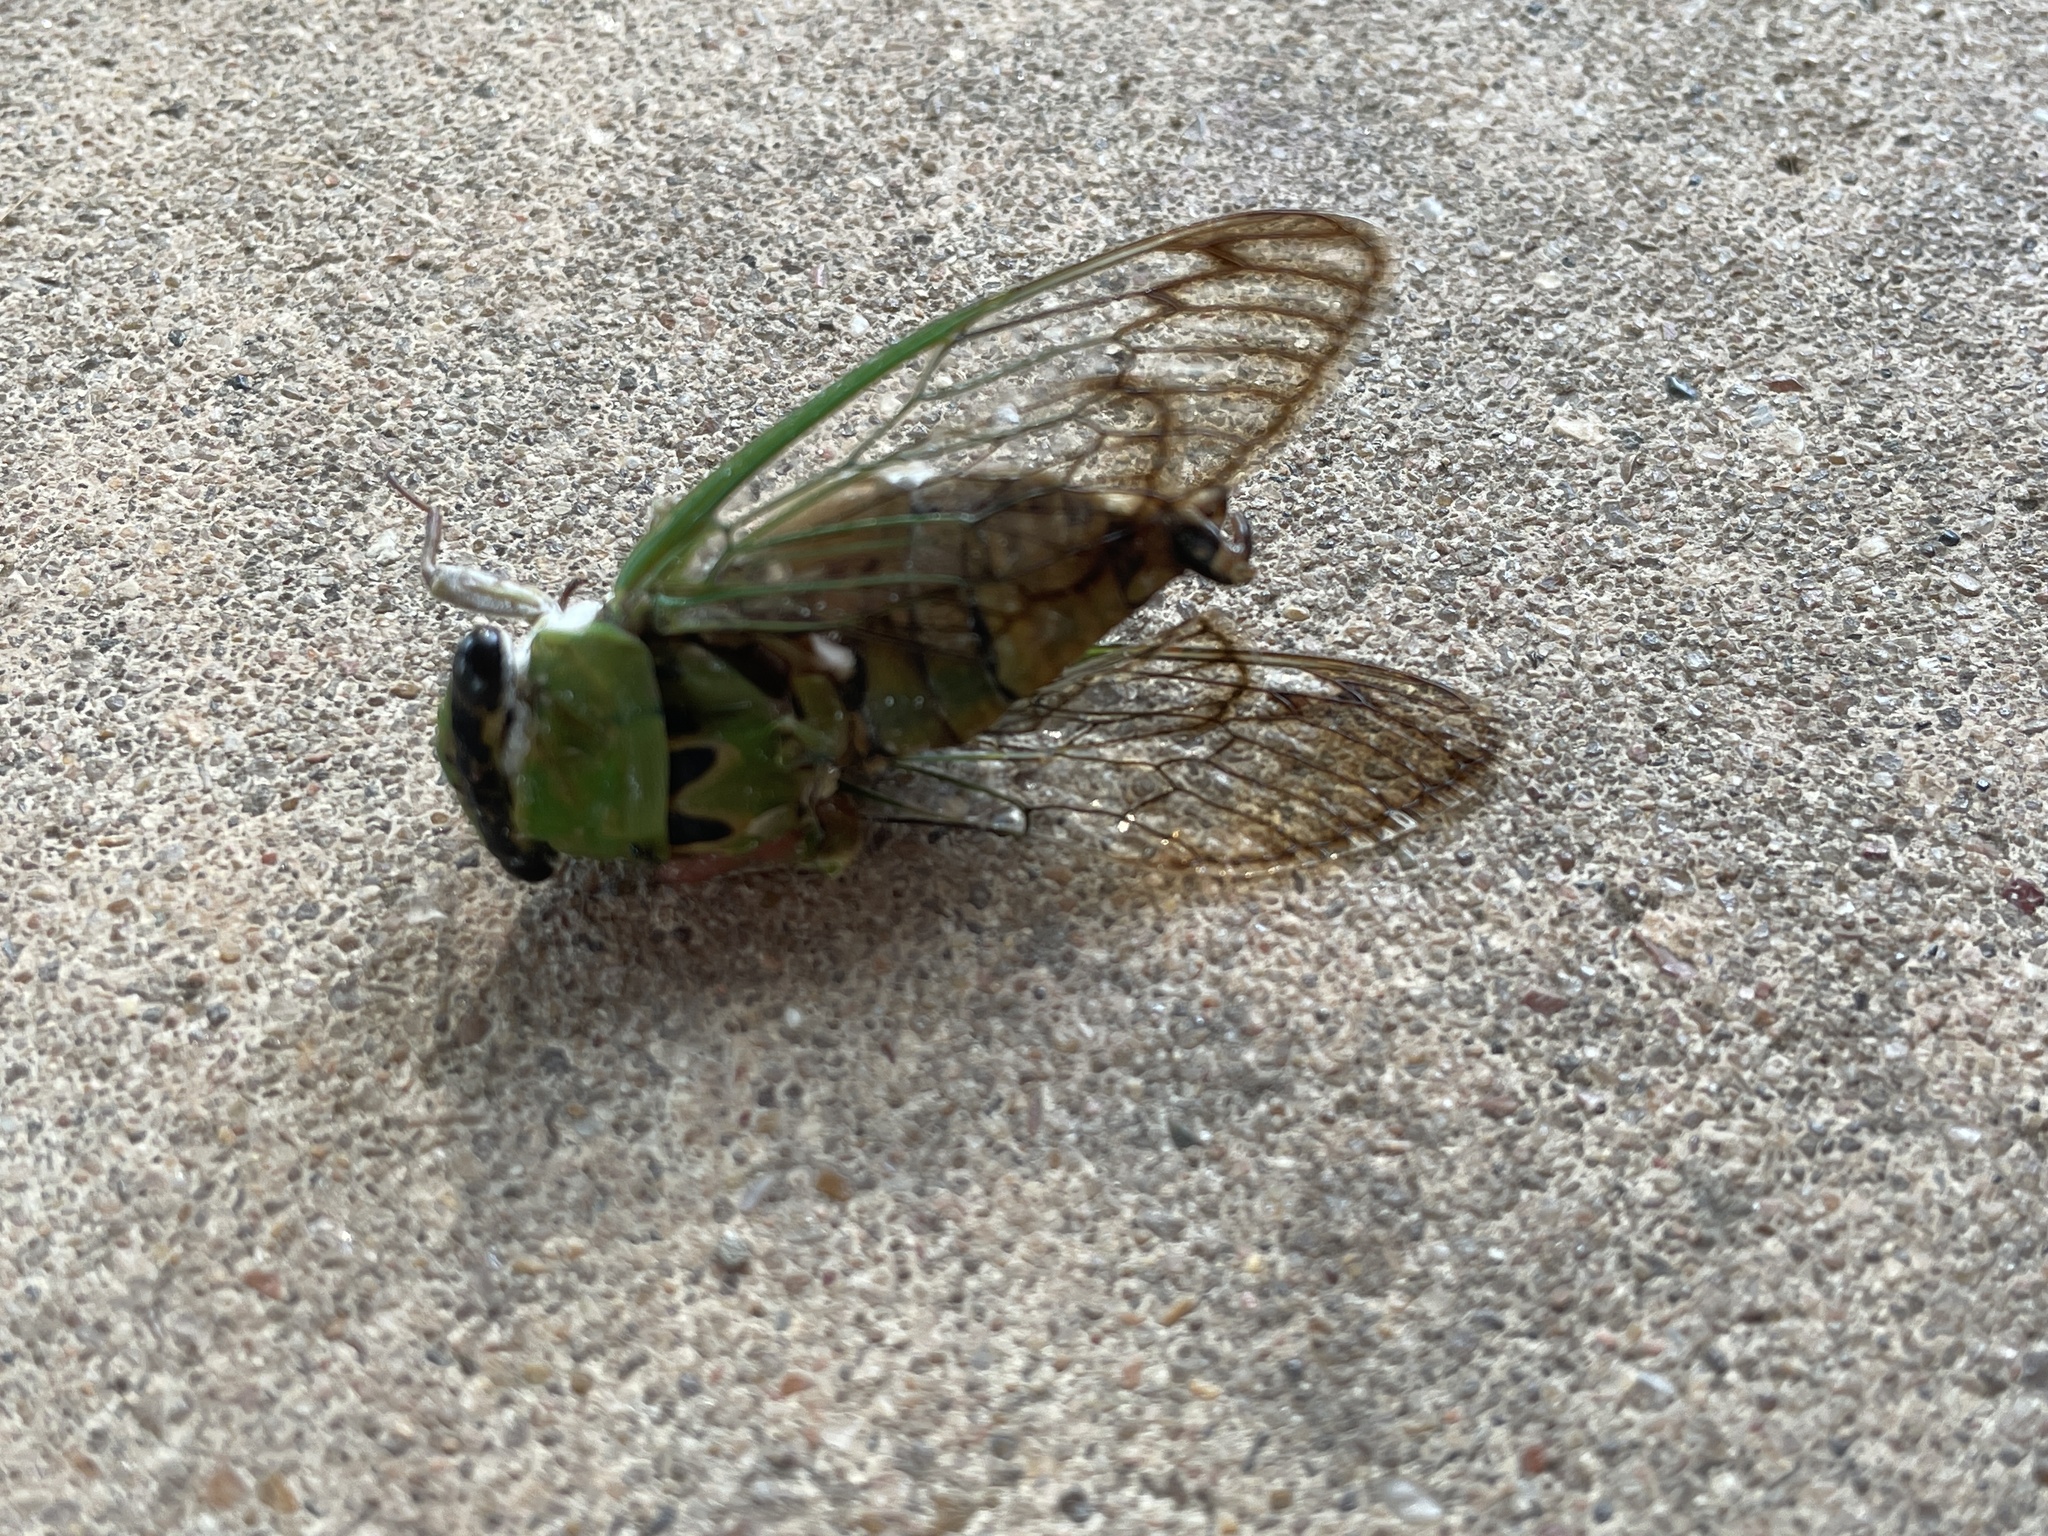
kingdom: Animalia
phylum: Arthropoda
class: Insecta
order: Hemiptera
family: Cicadidae
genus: Neotibicen
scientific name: Neotibicen superbus
